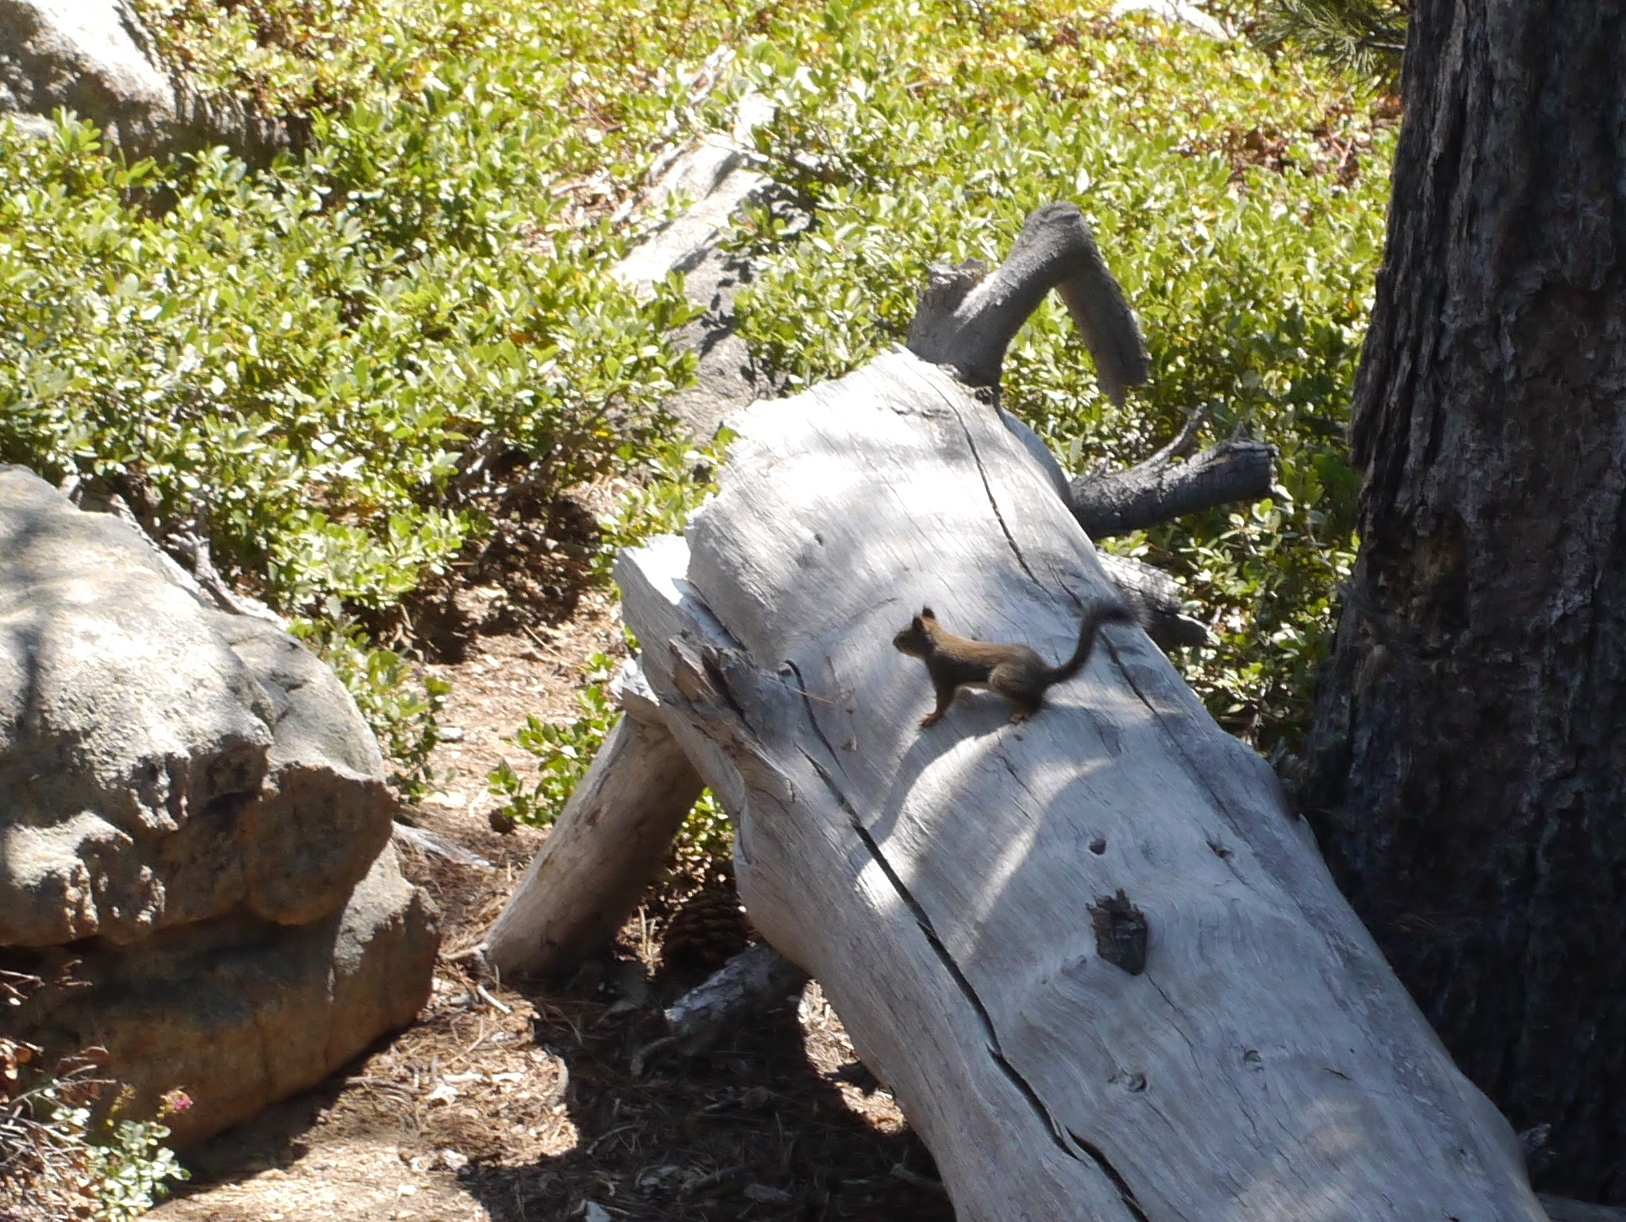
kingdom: Animalia
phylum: Chordata
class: Mammalia
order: Rodentia
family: Sciuridae
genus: Tamiasciurus
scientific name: Tamiasciurus douglasii
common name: Douglas's squirrel
